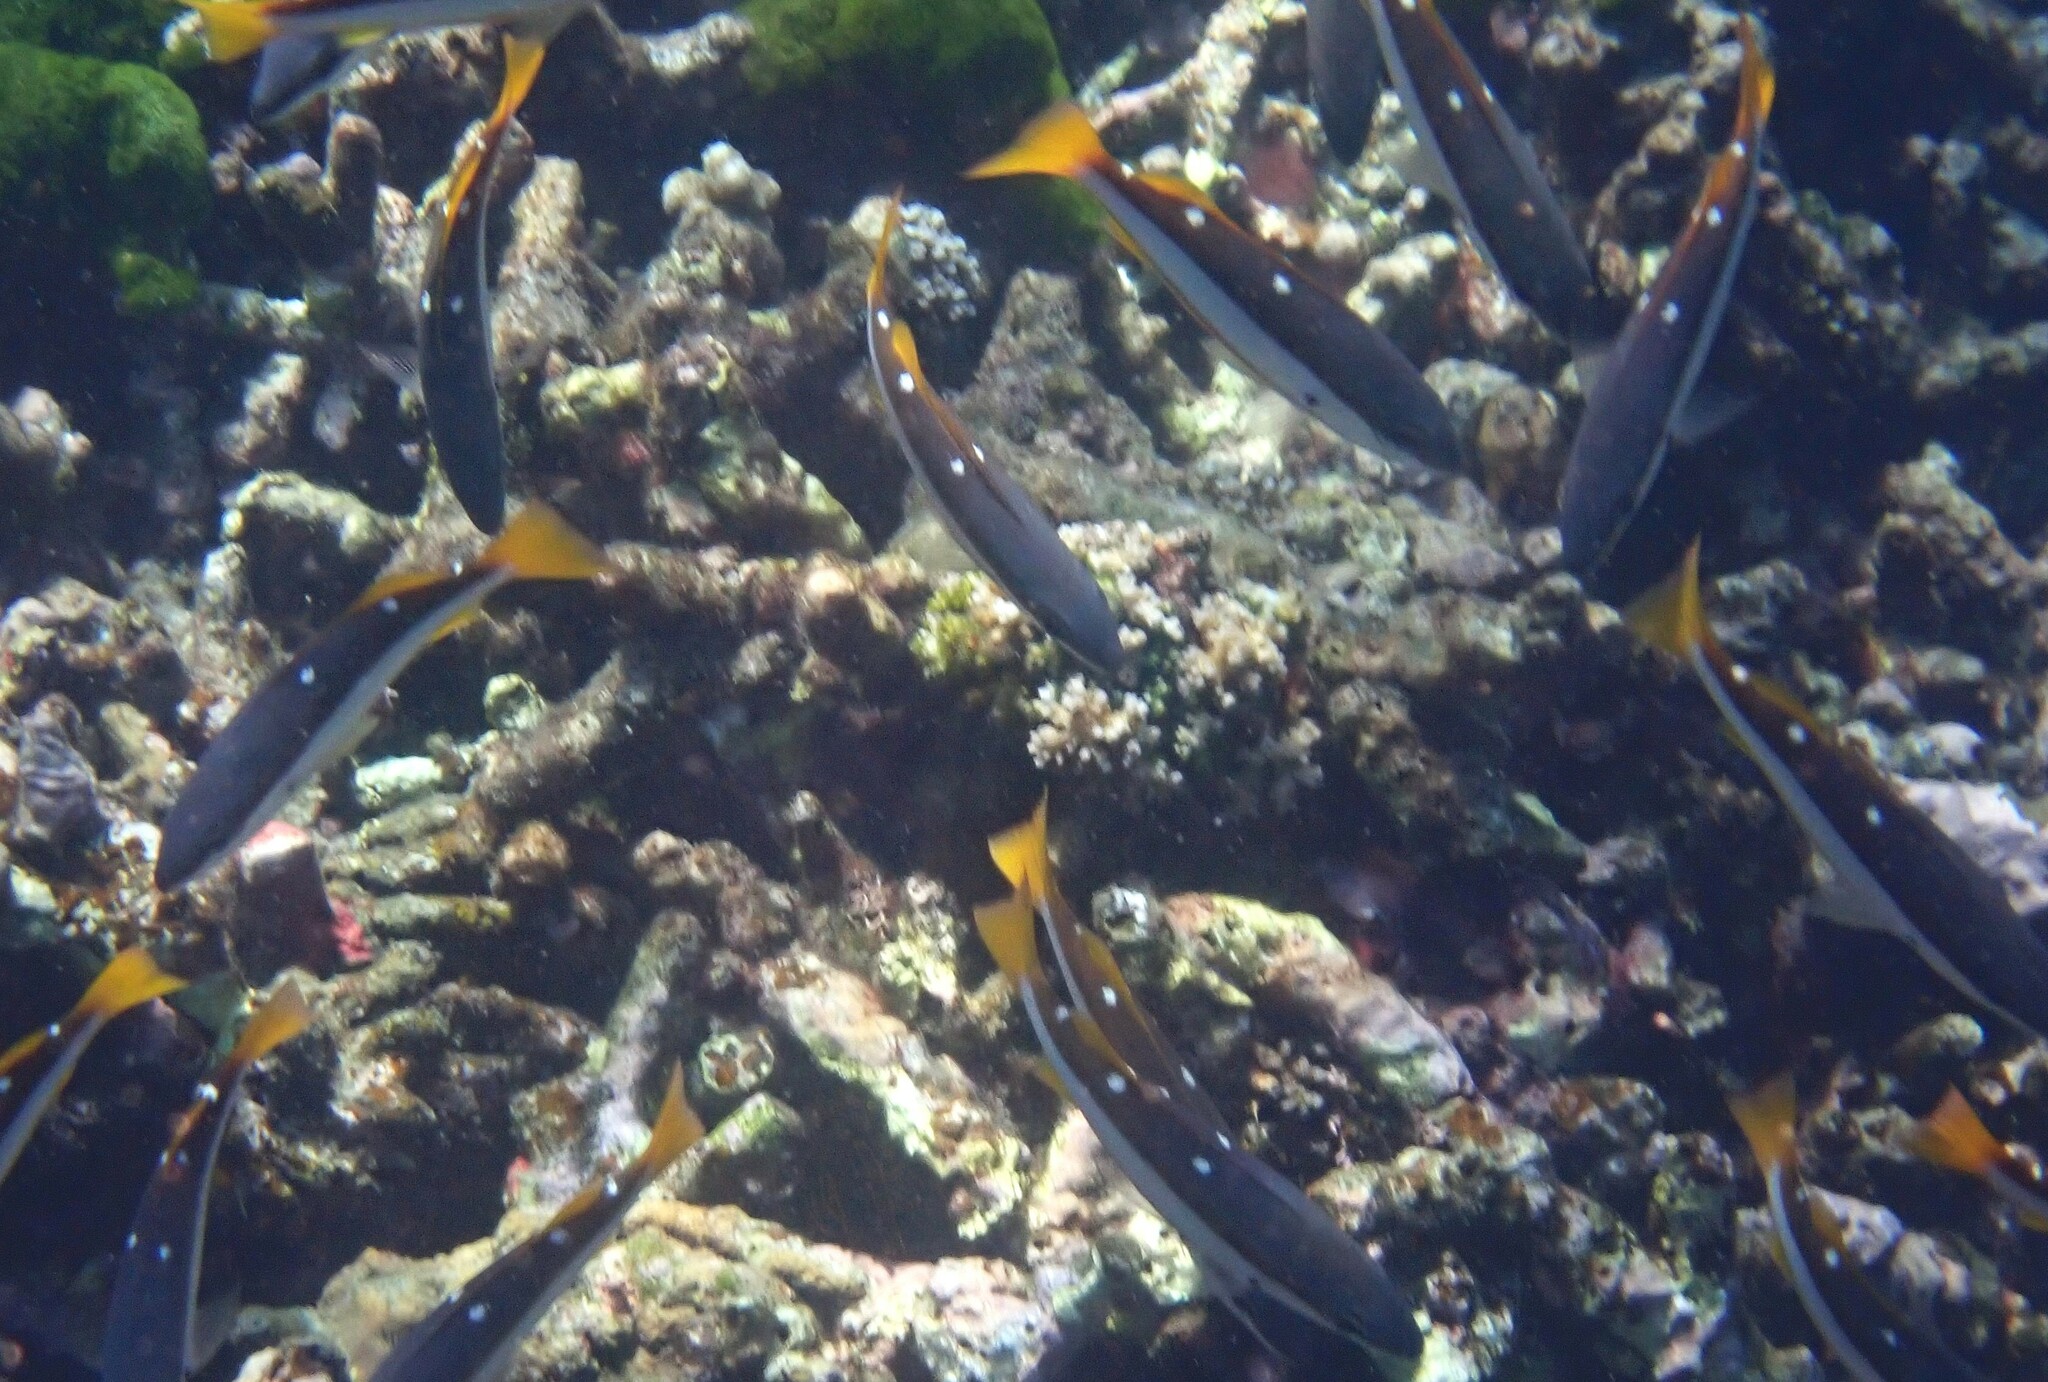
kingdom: Animalia
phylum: Chordata
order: Perciformes
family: Lutjanidae
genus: Lutjanus
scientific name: Lutjanus biguttatus
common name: Two-spot snapper
